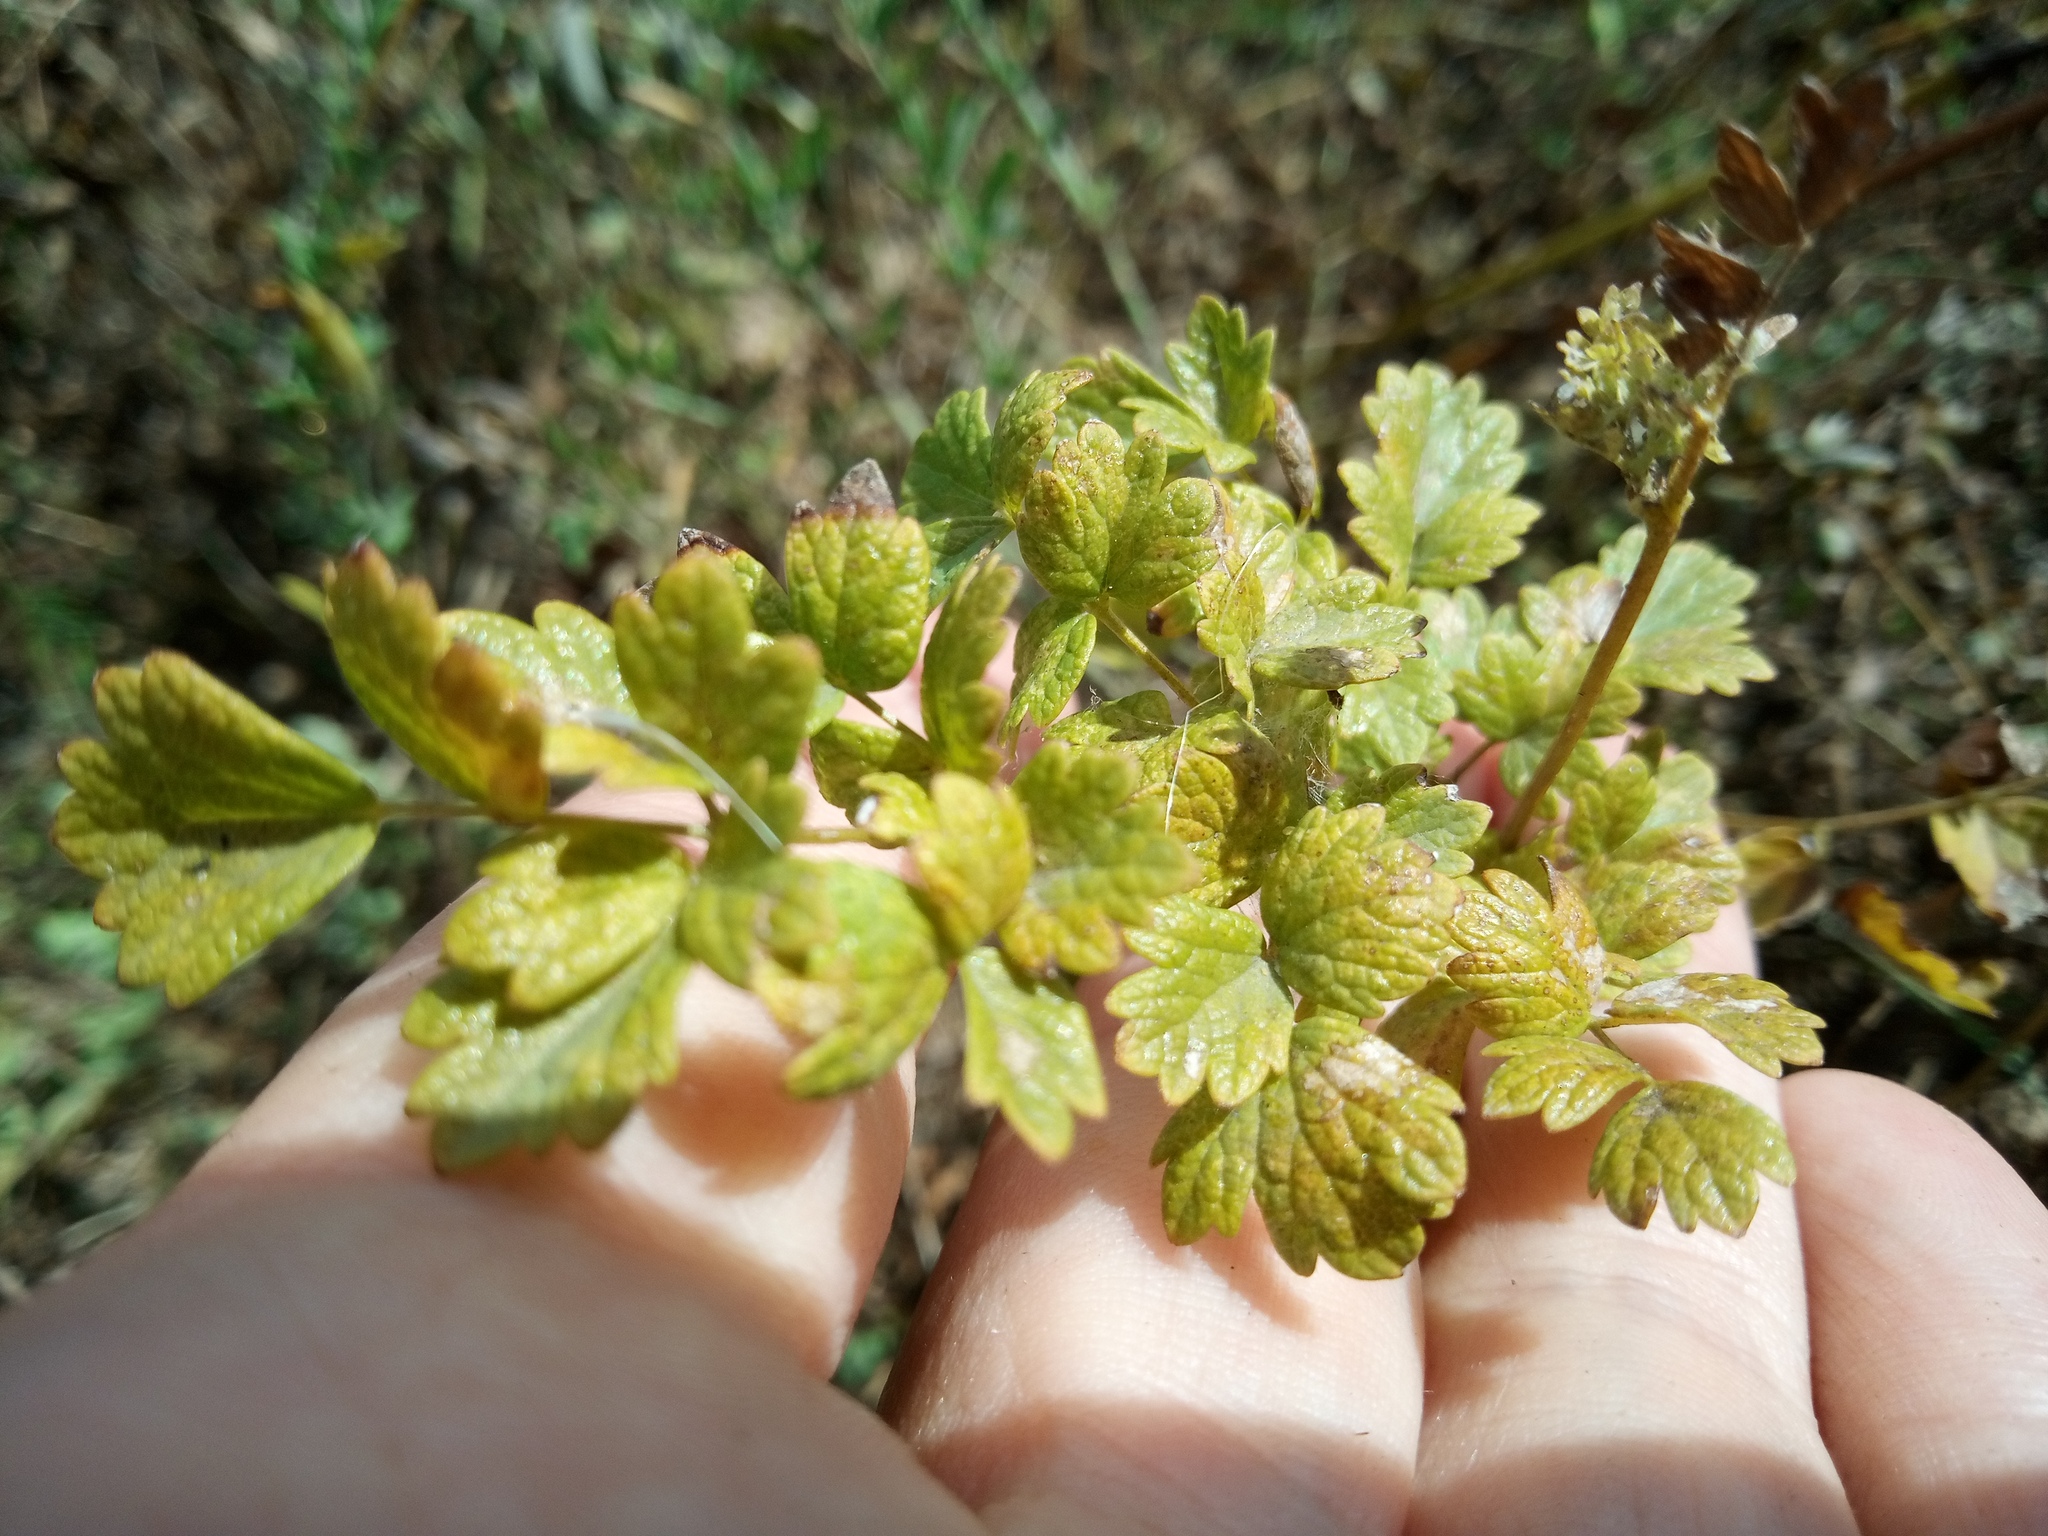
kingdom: Plantae
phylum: Tracheophyta
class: Magnoliopsida
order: Ranunculales
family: Ranunculaceae
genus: Thalictrum
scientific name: Thalictrum minus
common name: Lesser meadow-rue
